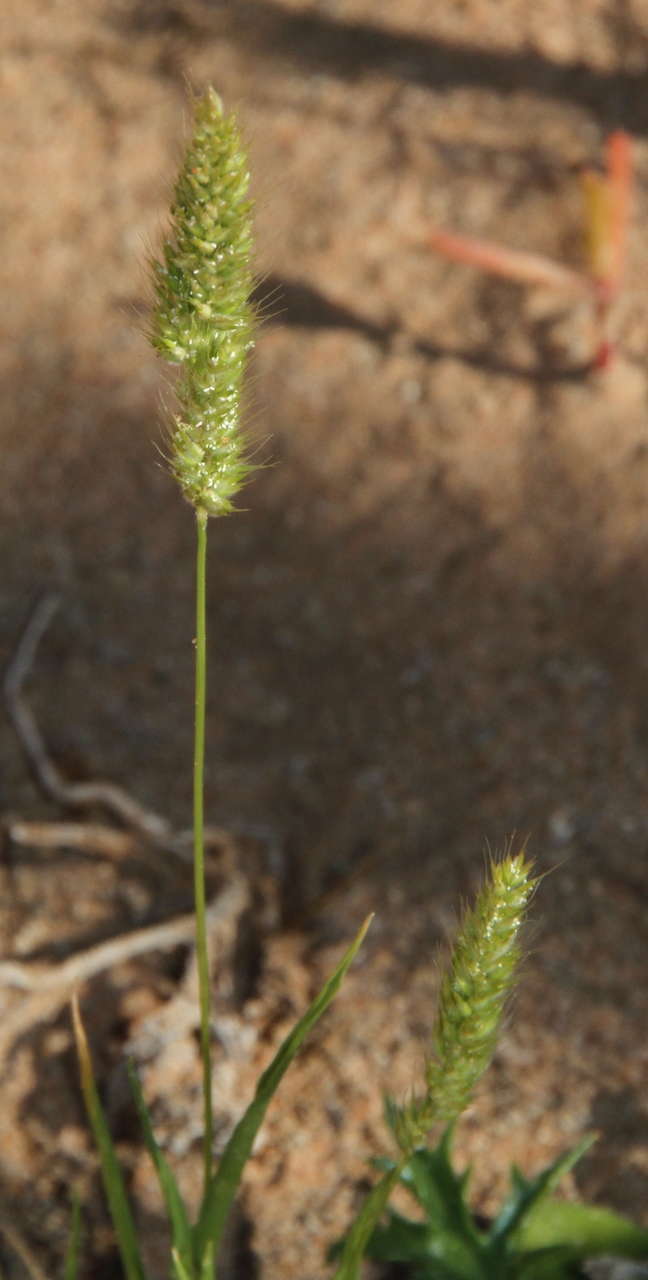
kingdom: Plantae
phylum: Tracheophyta
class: Liliopsida
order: Poales
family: Poaceae
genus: Rostraria
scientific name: Rostraria pumila
